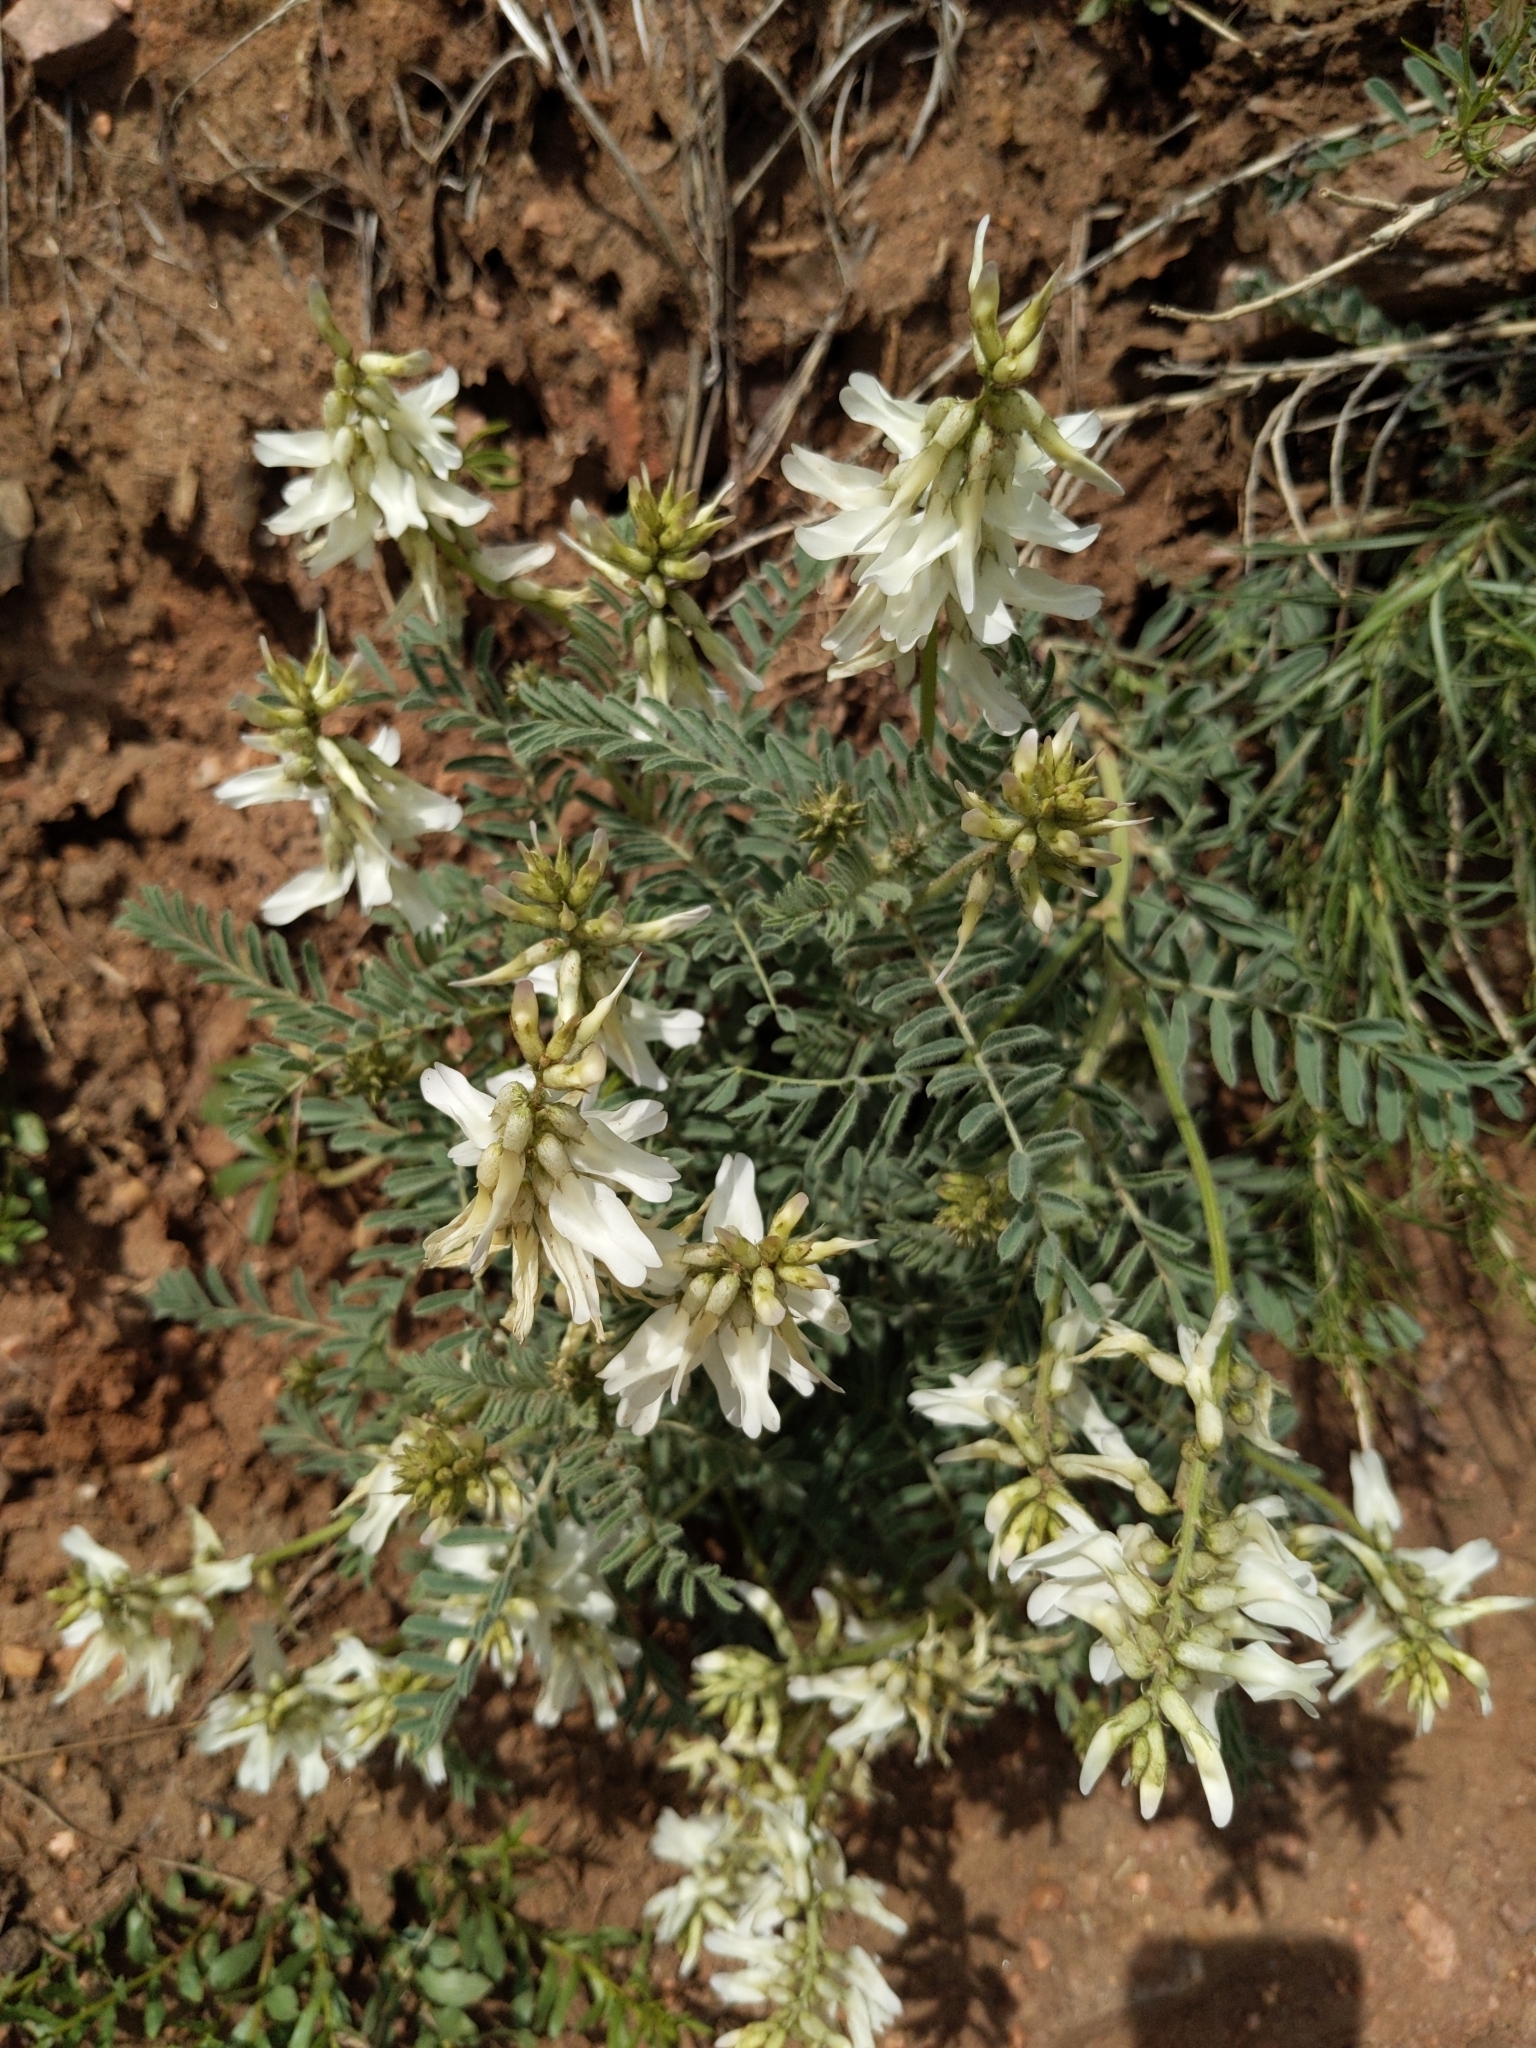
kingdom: Plantae
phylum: Tracheophyta
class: Magnoliopsida
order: Fabales
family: Fabaceae
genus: Astragalus
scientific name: Astragalus drummondii
